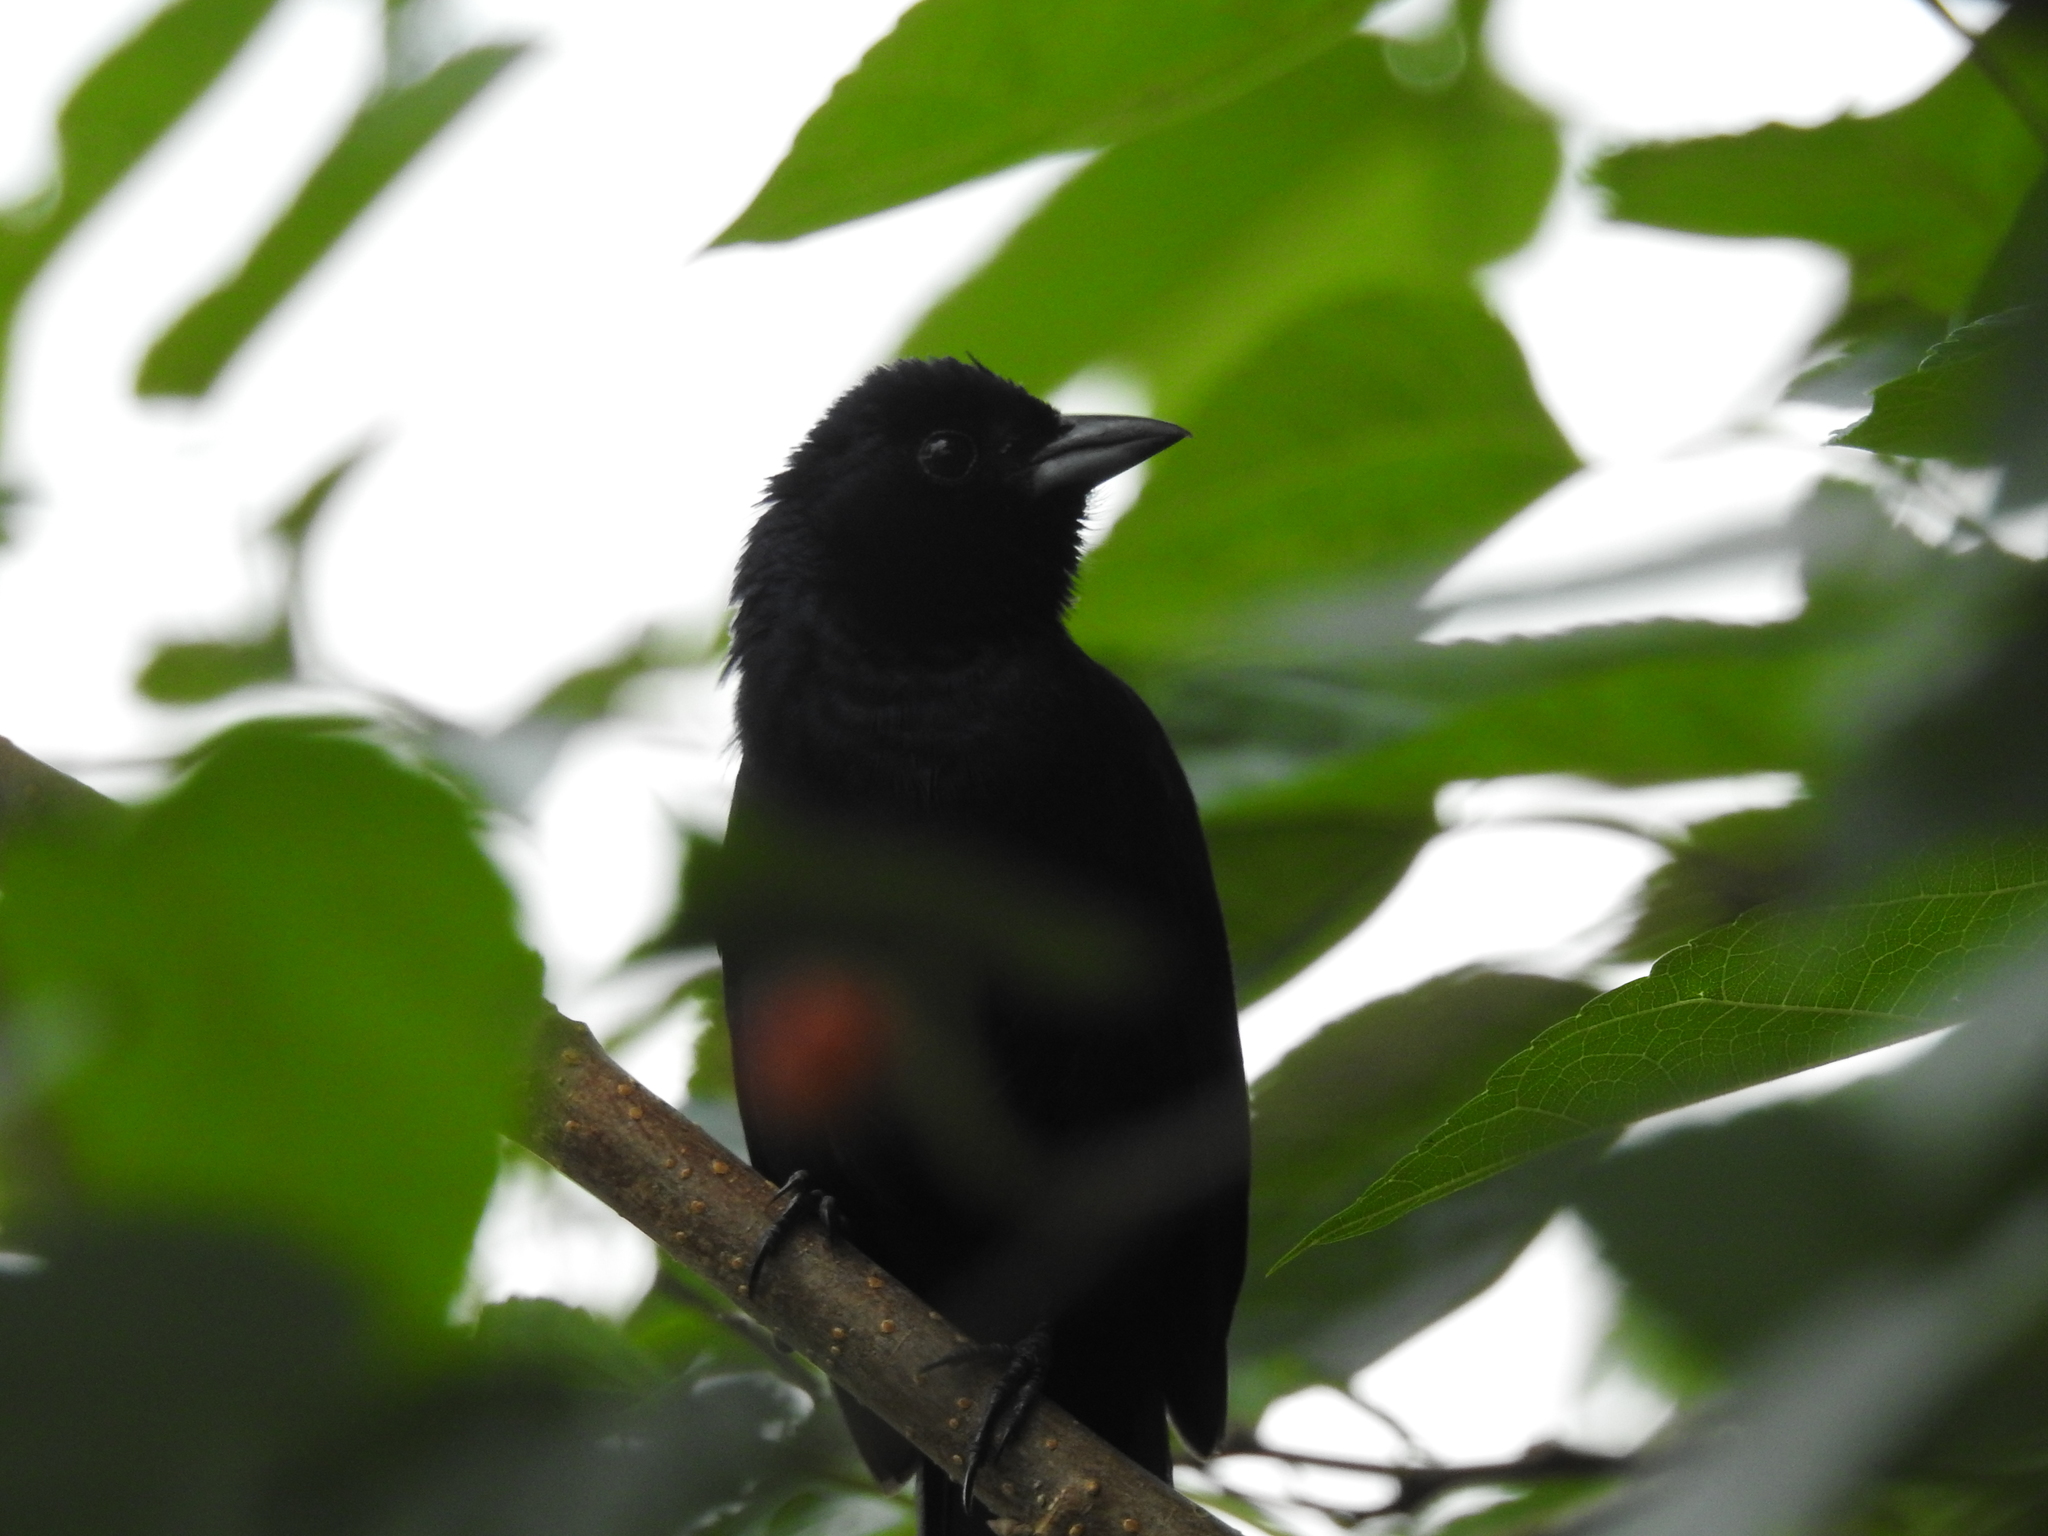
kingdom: Animalia
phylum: Chordata
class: Aves
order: Passeriformes
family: Thraupidae
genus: Tachyphonus
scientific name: Tachyphonus rufus
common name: White-lined tanager
